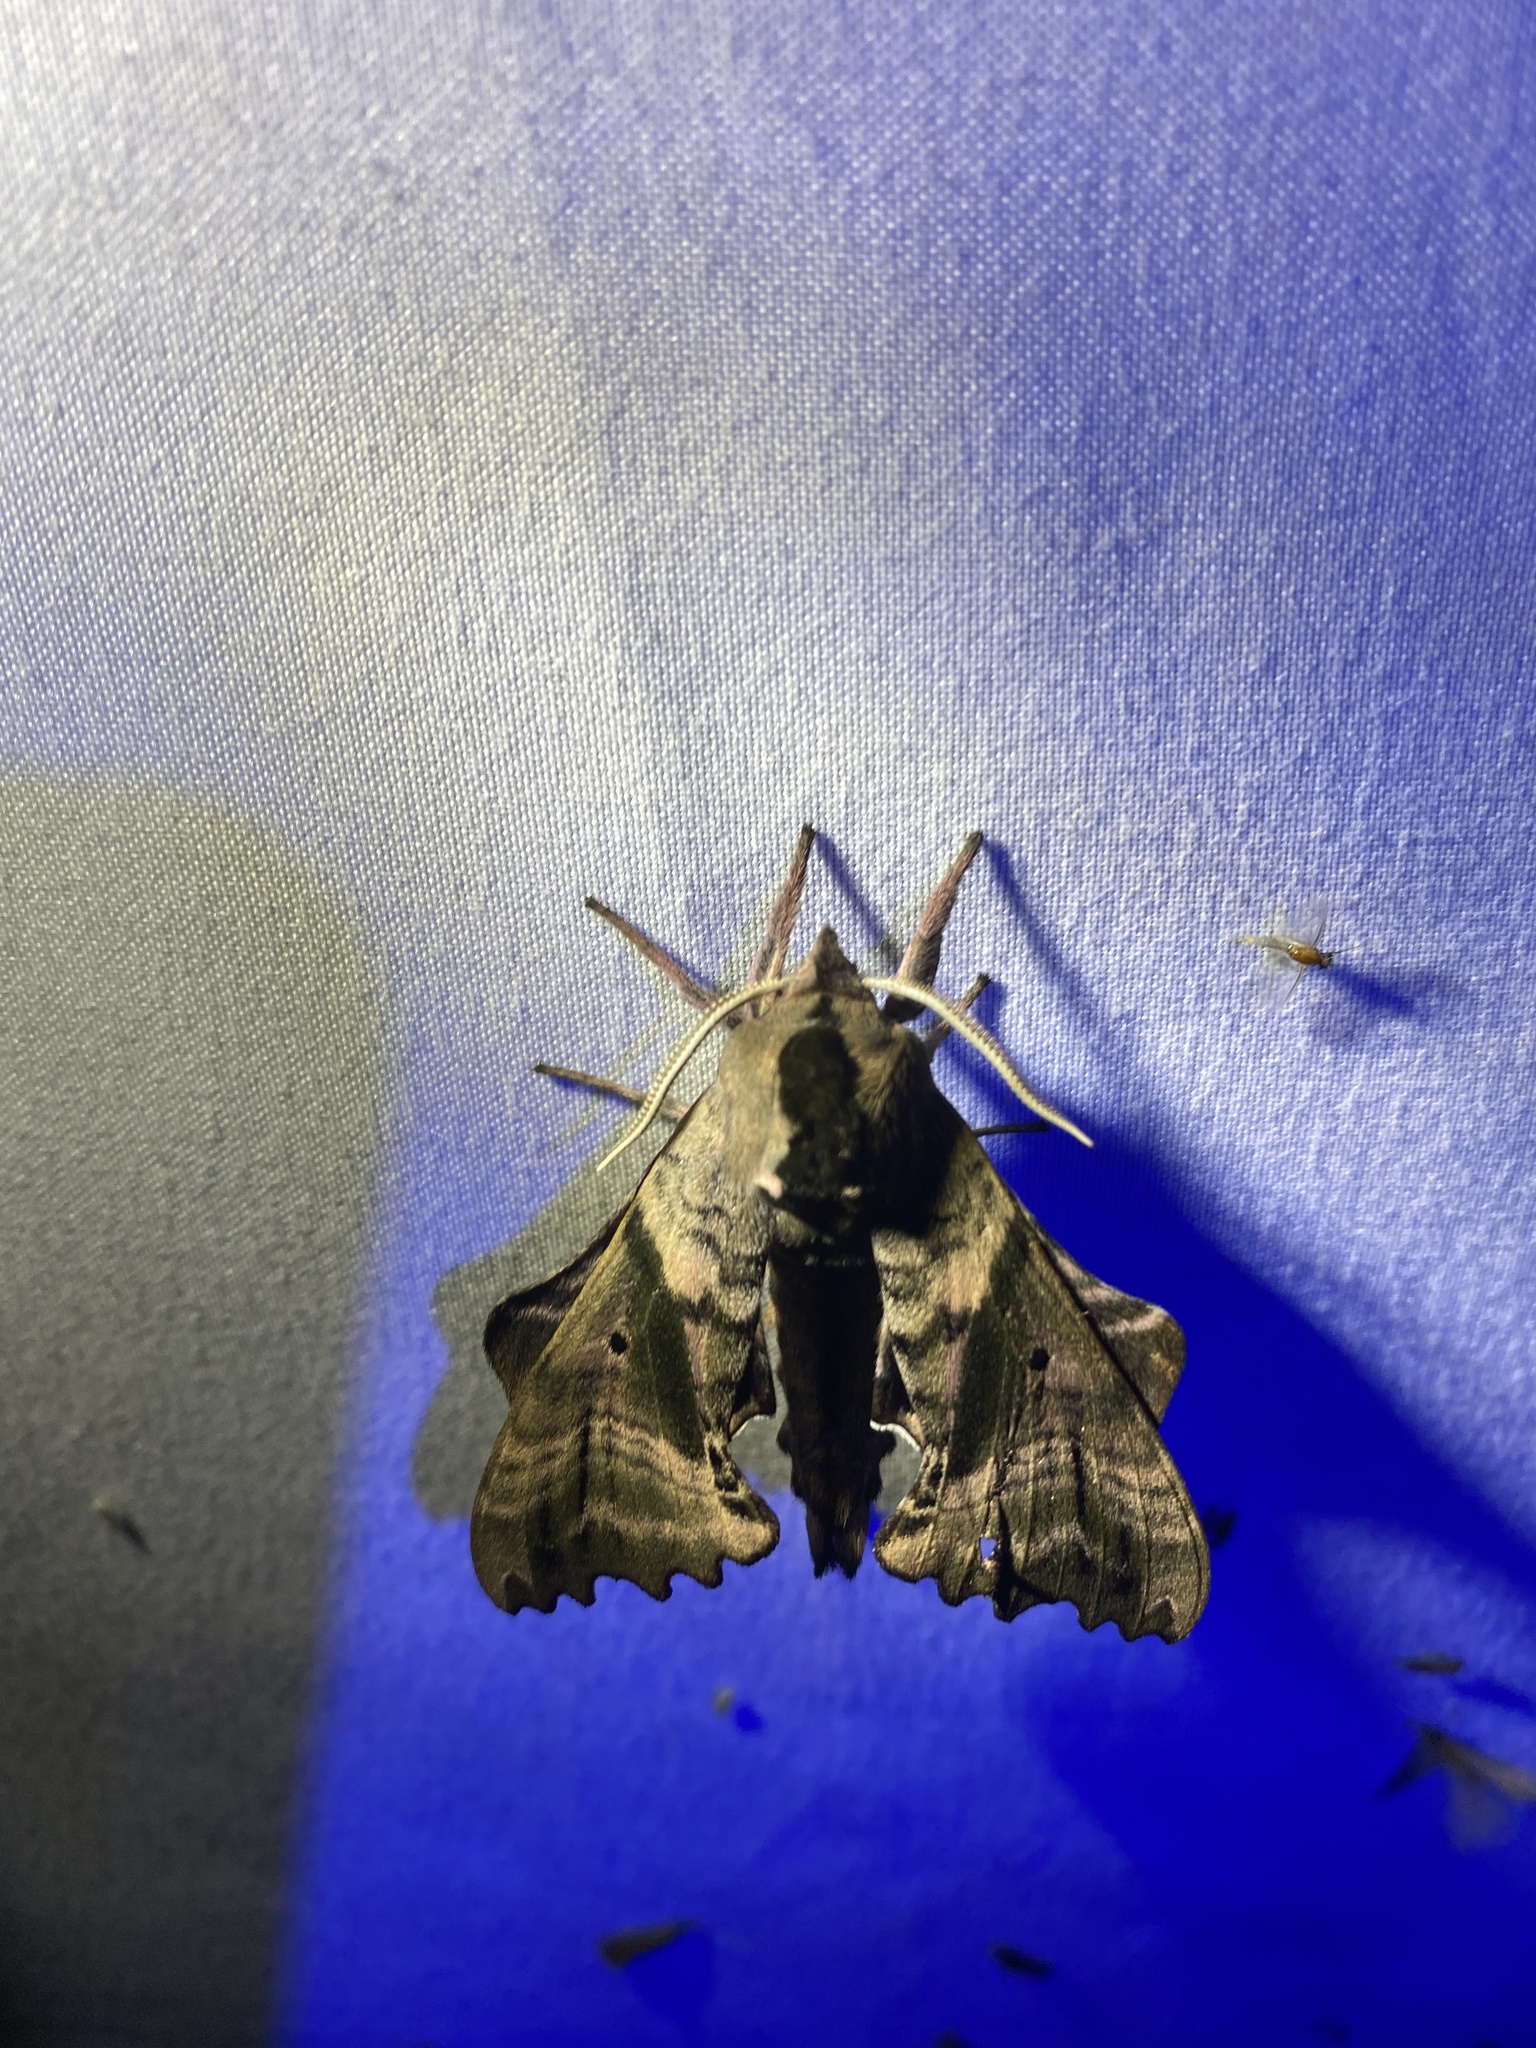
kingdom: Animalia
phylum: Arthropoda
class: Insecta
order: Lepidoptera
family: Sphingidae
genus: Paonias
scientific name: Paonias excaecata
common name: Blind-eyed sphinx
